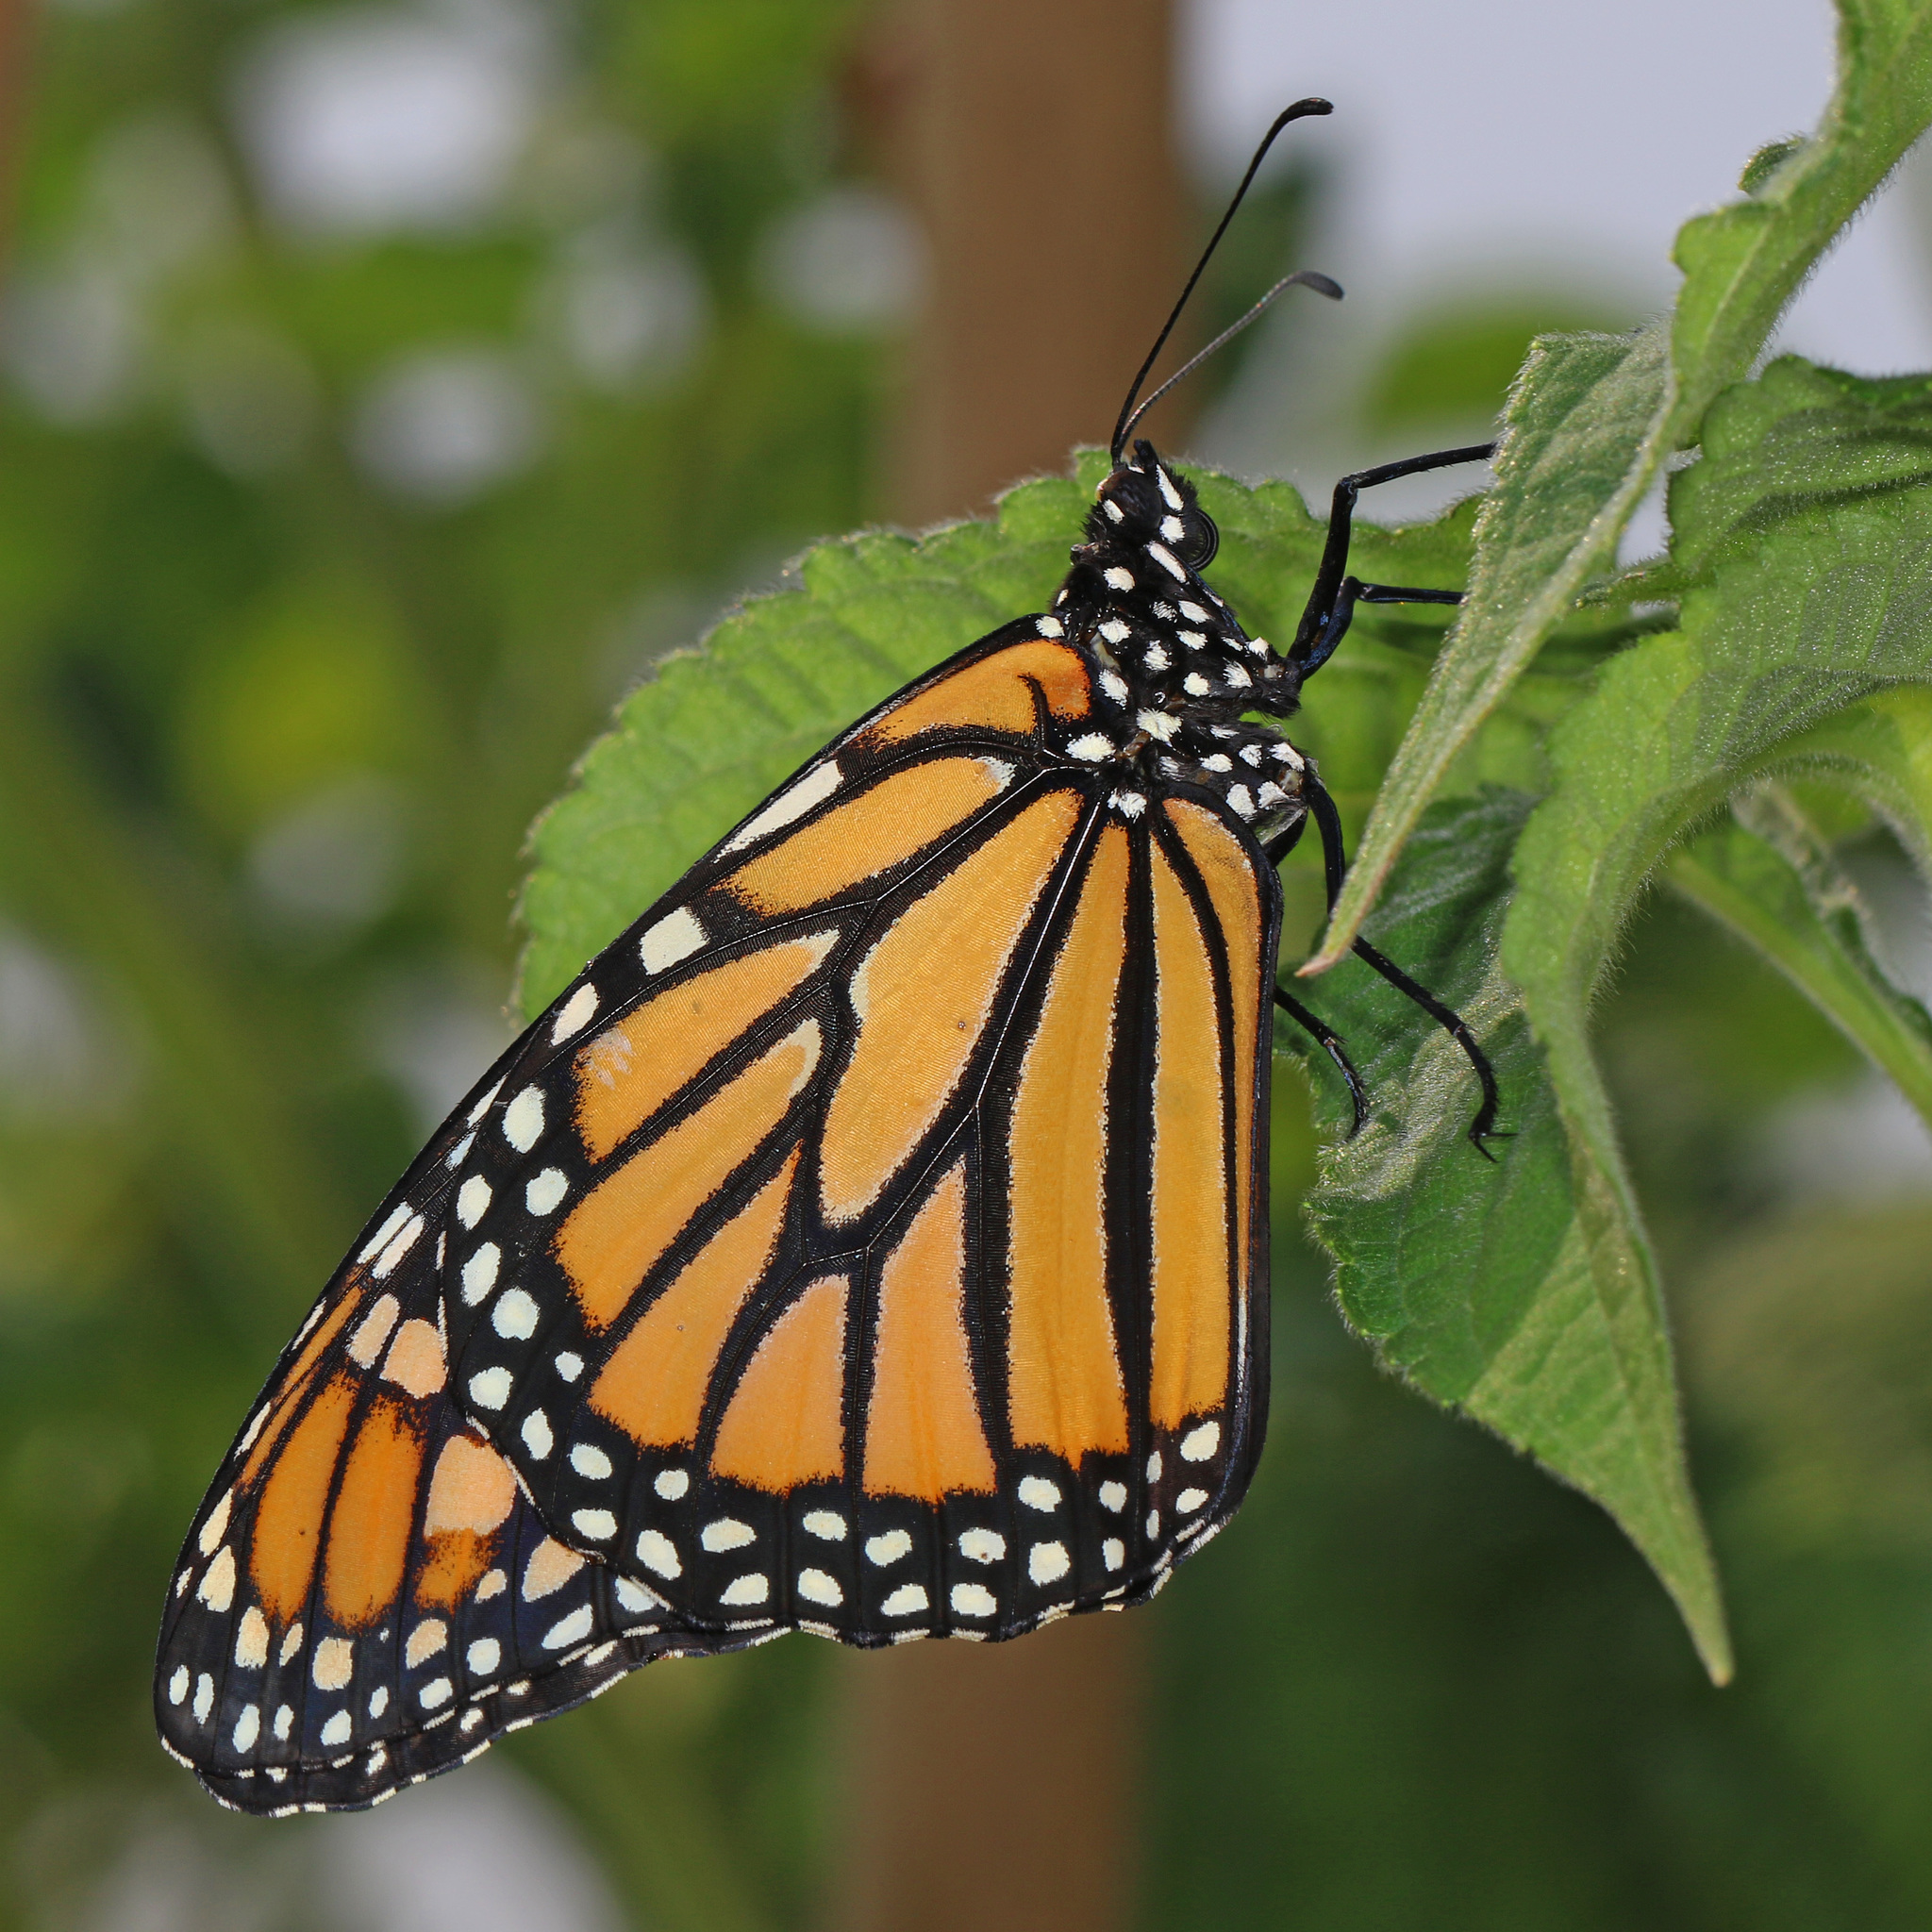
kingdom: Animalia
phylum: Arthropoda
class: Insecta
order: Lepidoptera
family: Nymphalidae
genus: Danaus
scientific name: Danaus plexippus
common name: Monarch
